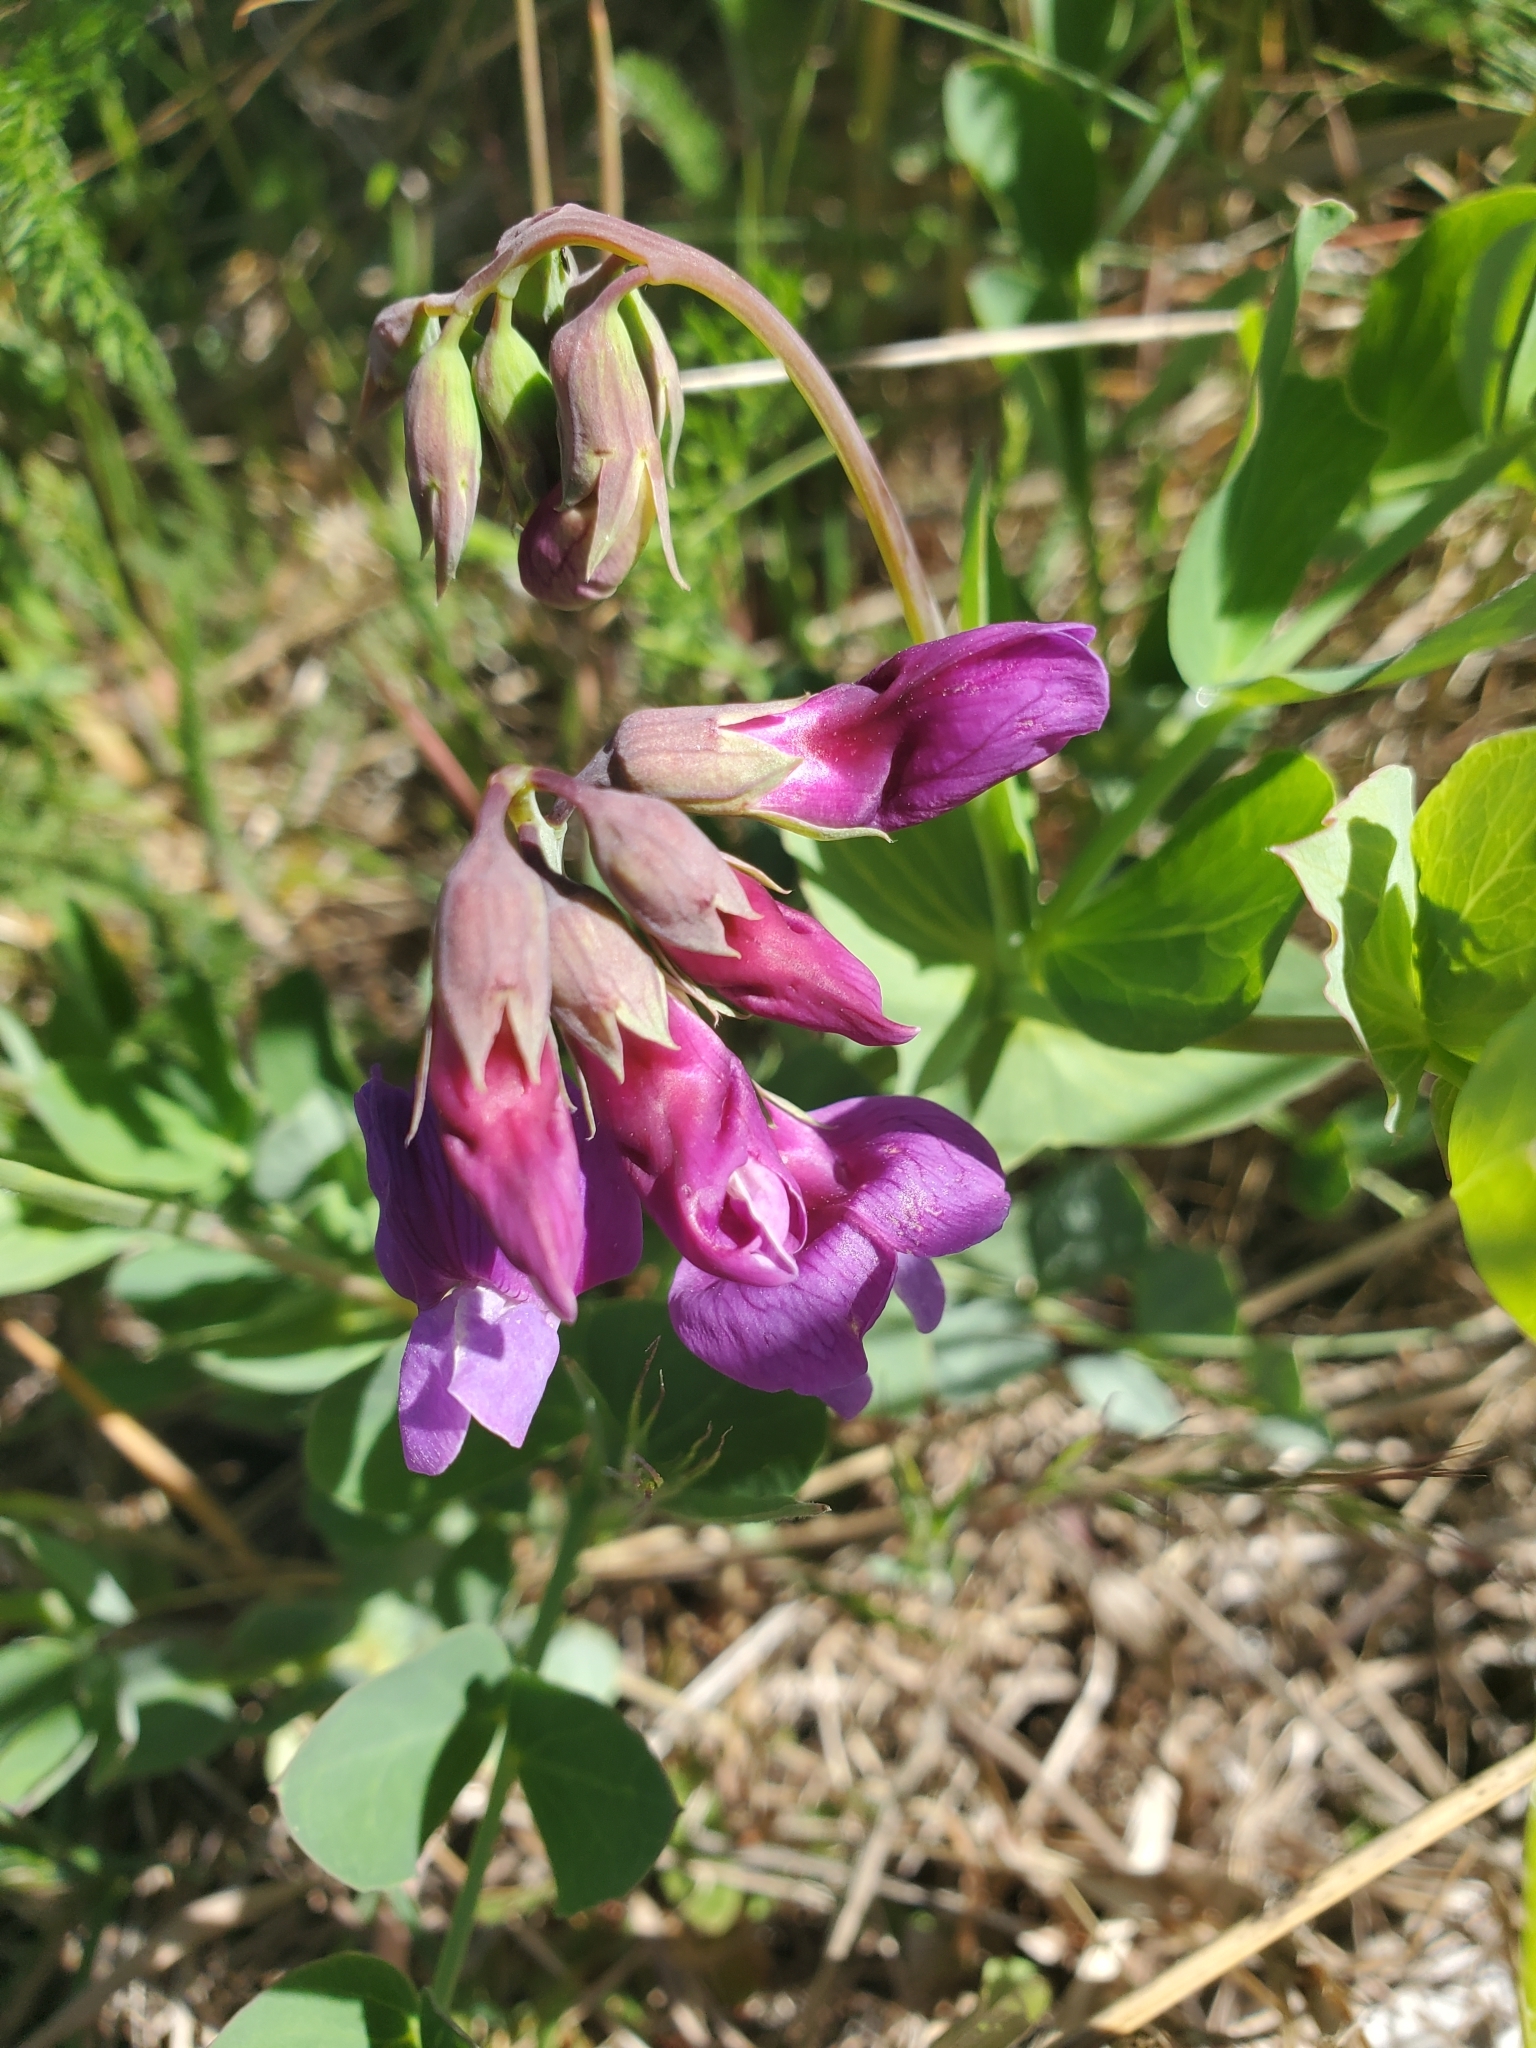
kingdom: Plantae
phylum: Tracheophyta
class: Magnoliopsida
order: Fabales
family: Fabaceae
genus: Lathyrus
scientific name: Lathyrus japonicus
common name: Sea pea
